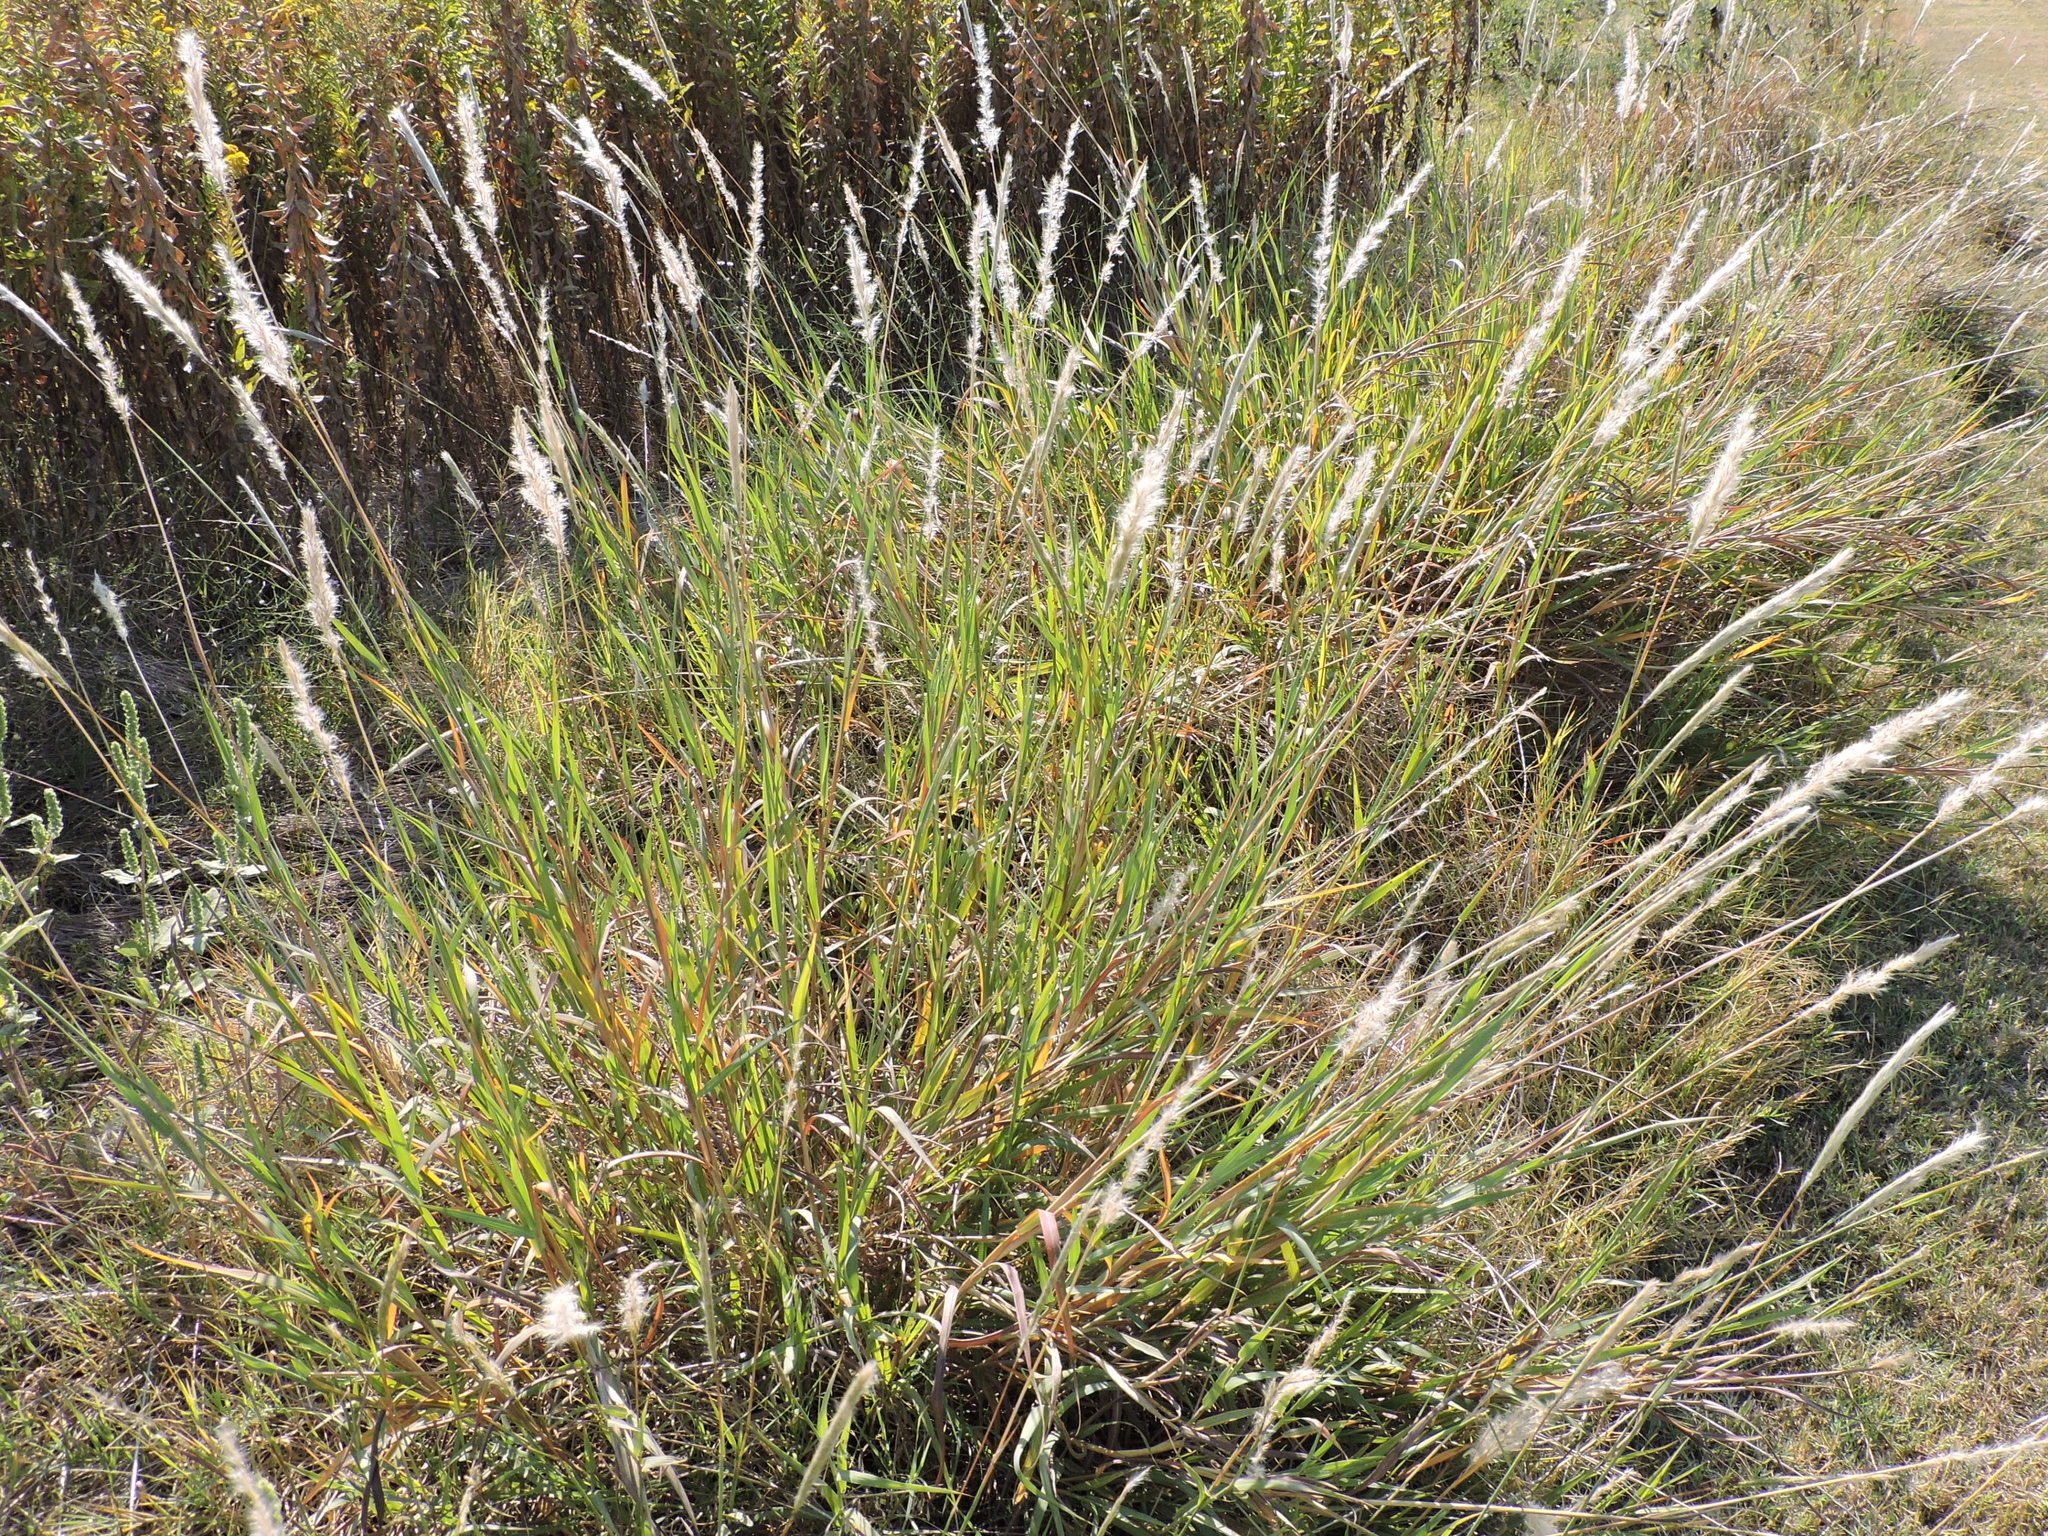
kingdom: Plantae
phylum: Tracheophyta
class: Liliopsida
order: Poales
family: Poaceae
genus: Bothriochloa
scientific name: Bothriochloa torreyana
